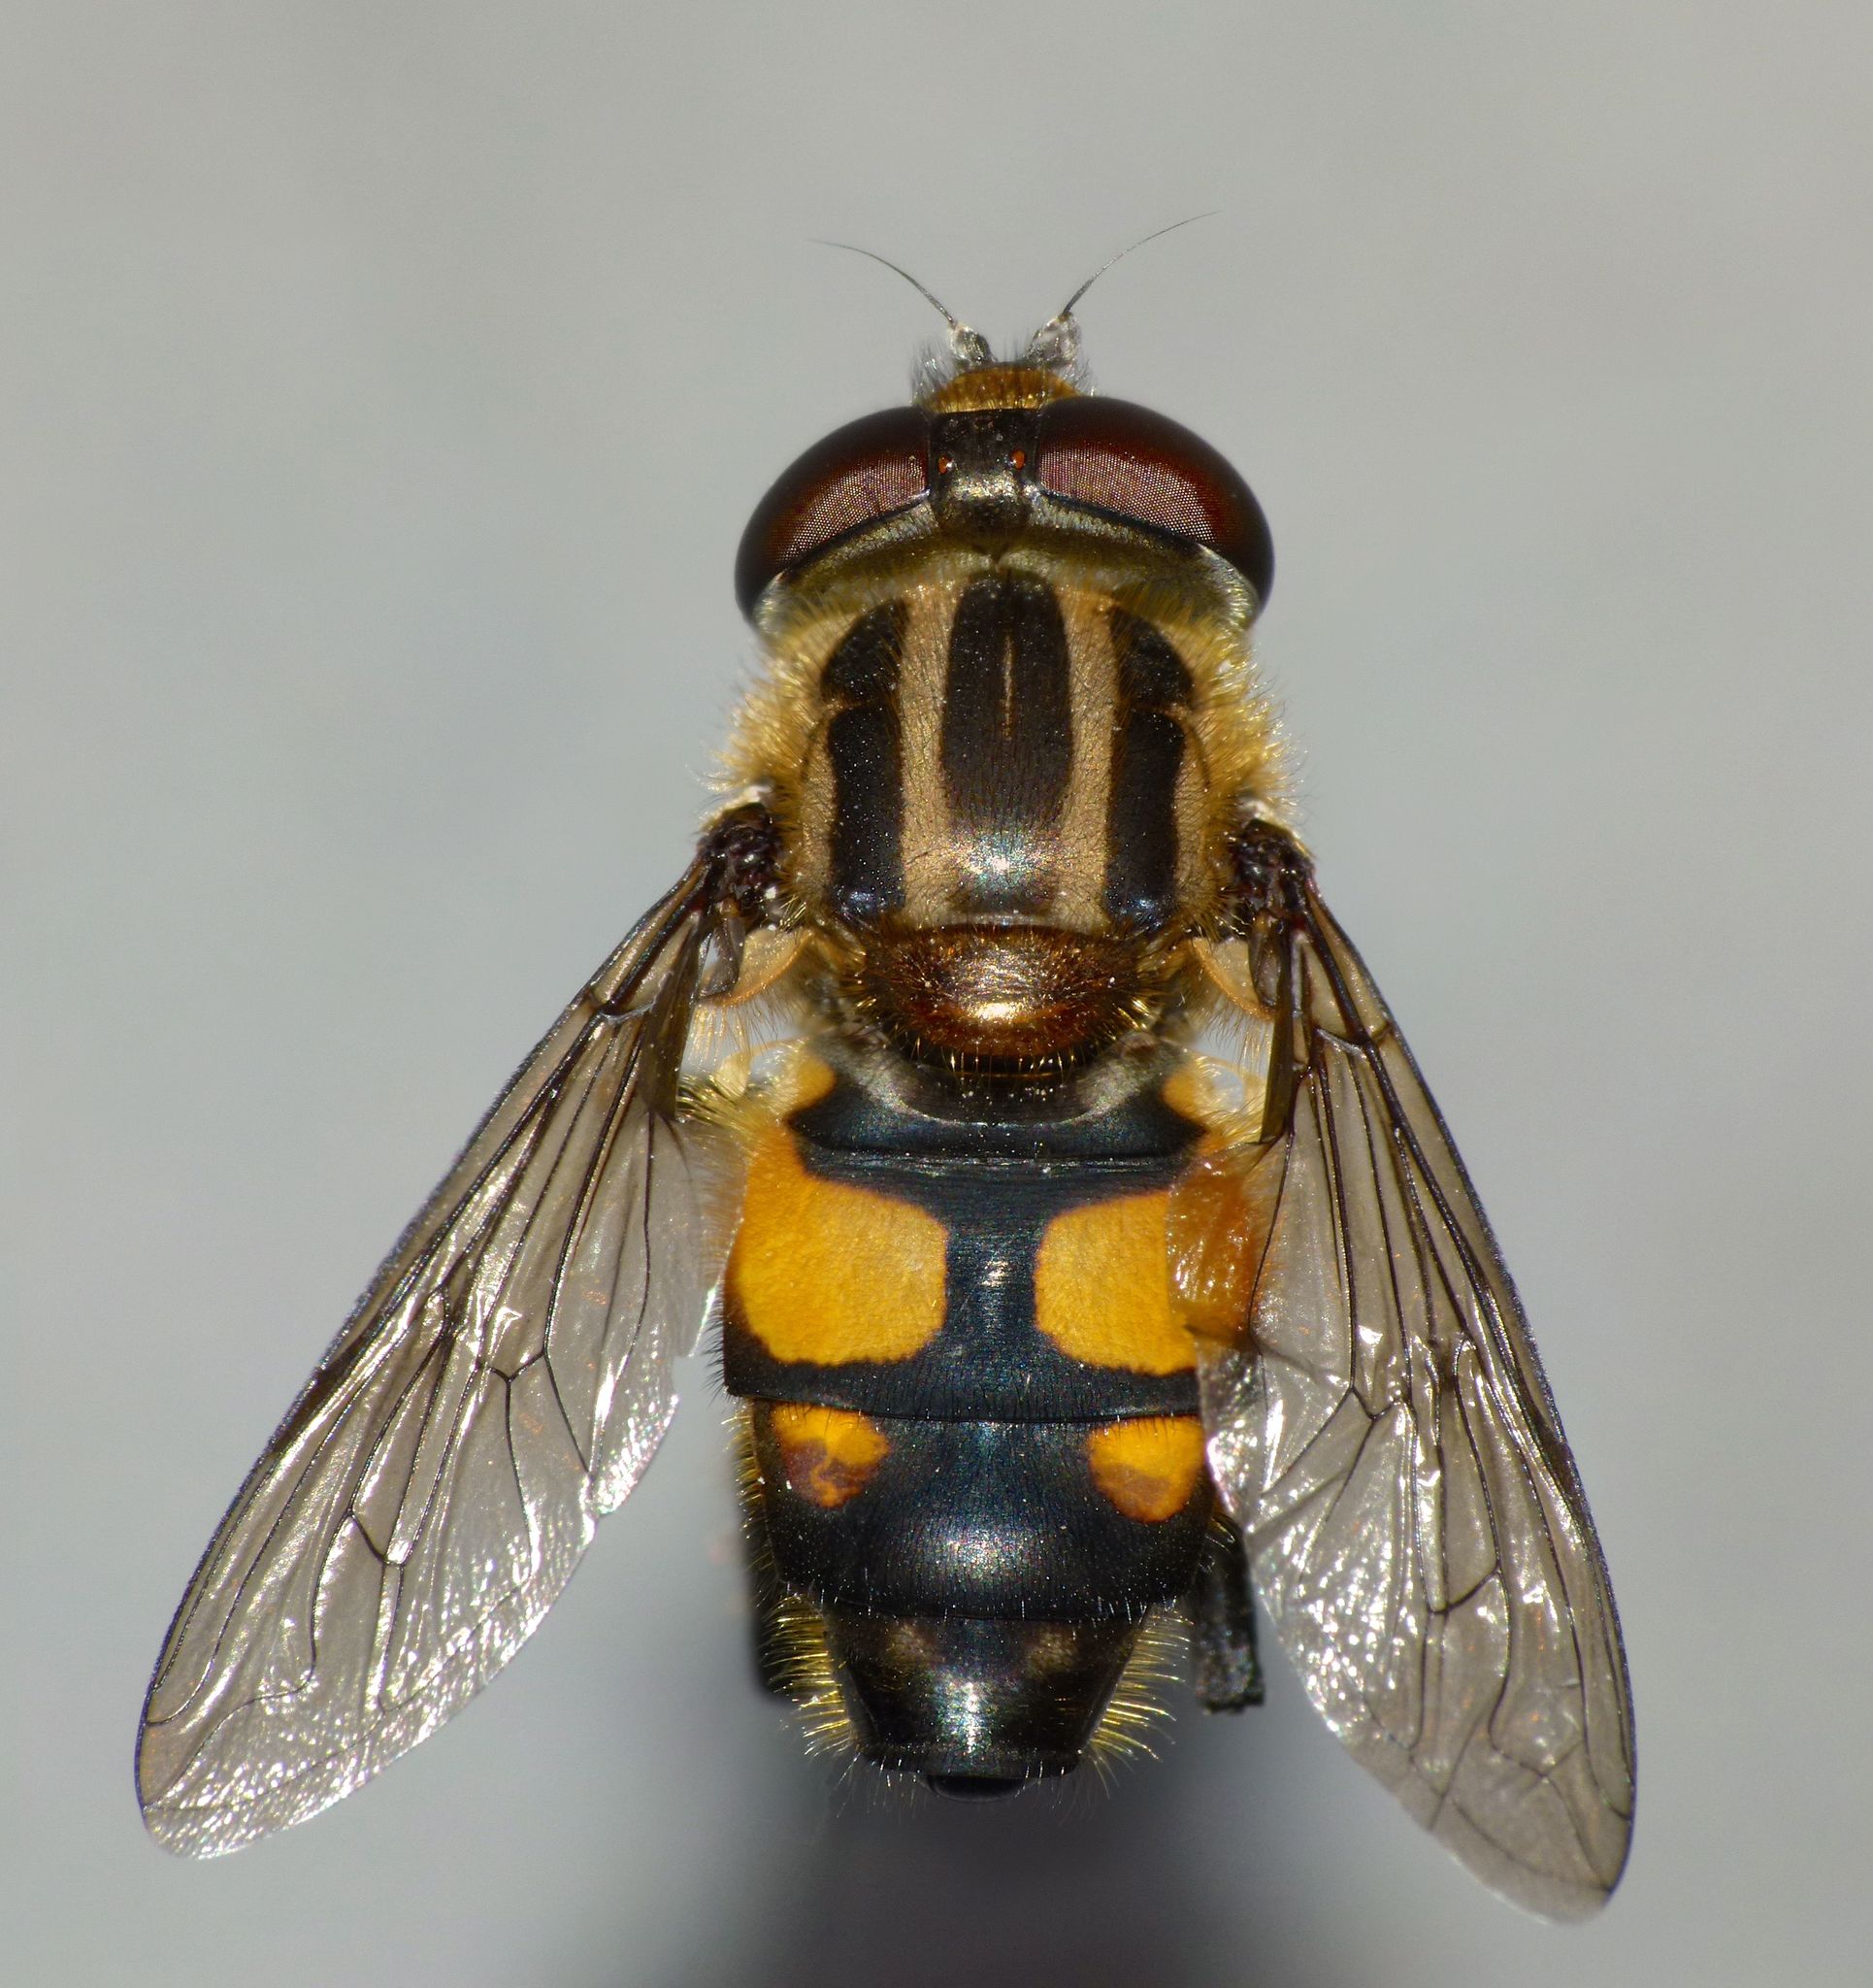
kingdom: Animalia
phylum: Arthropoda
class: Insecta
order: Diptera
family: Syrphidae
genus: Helophilus
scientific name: Helophilus antipodus
